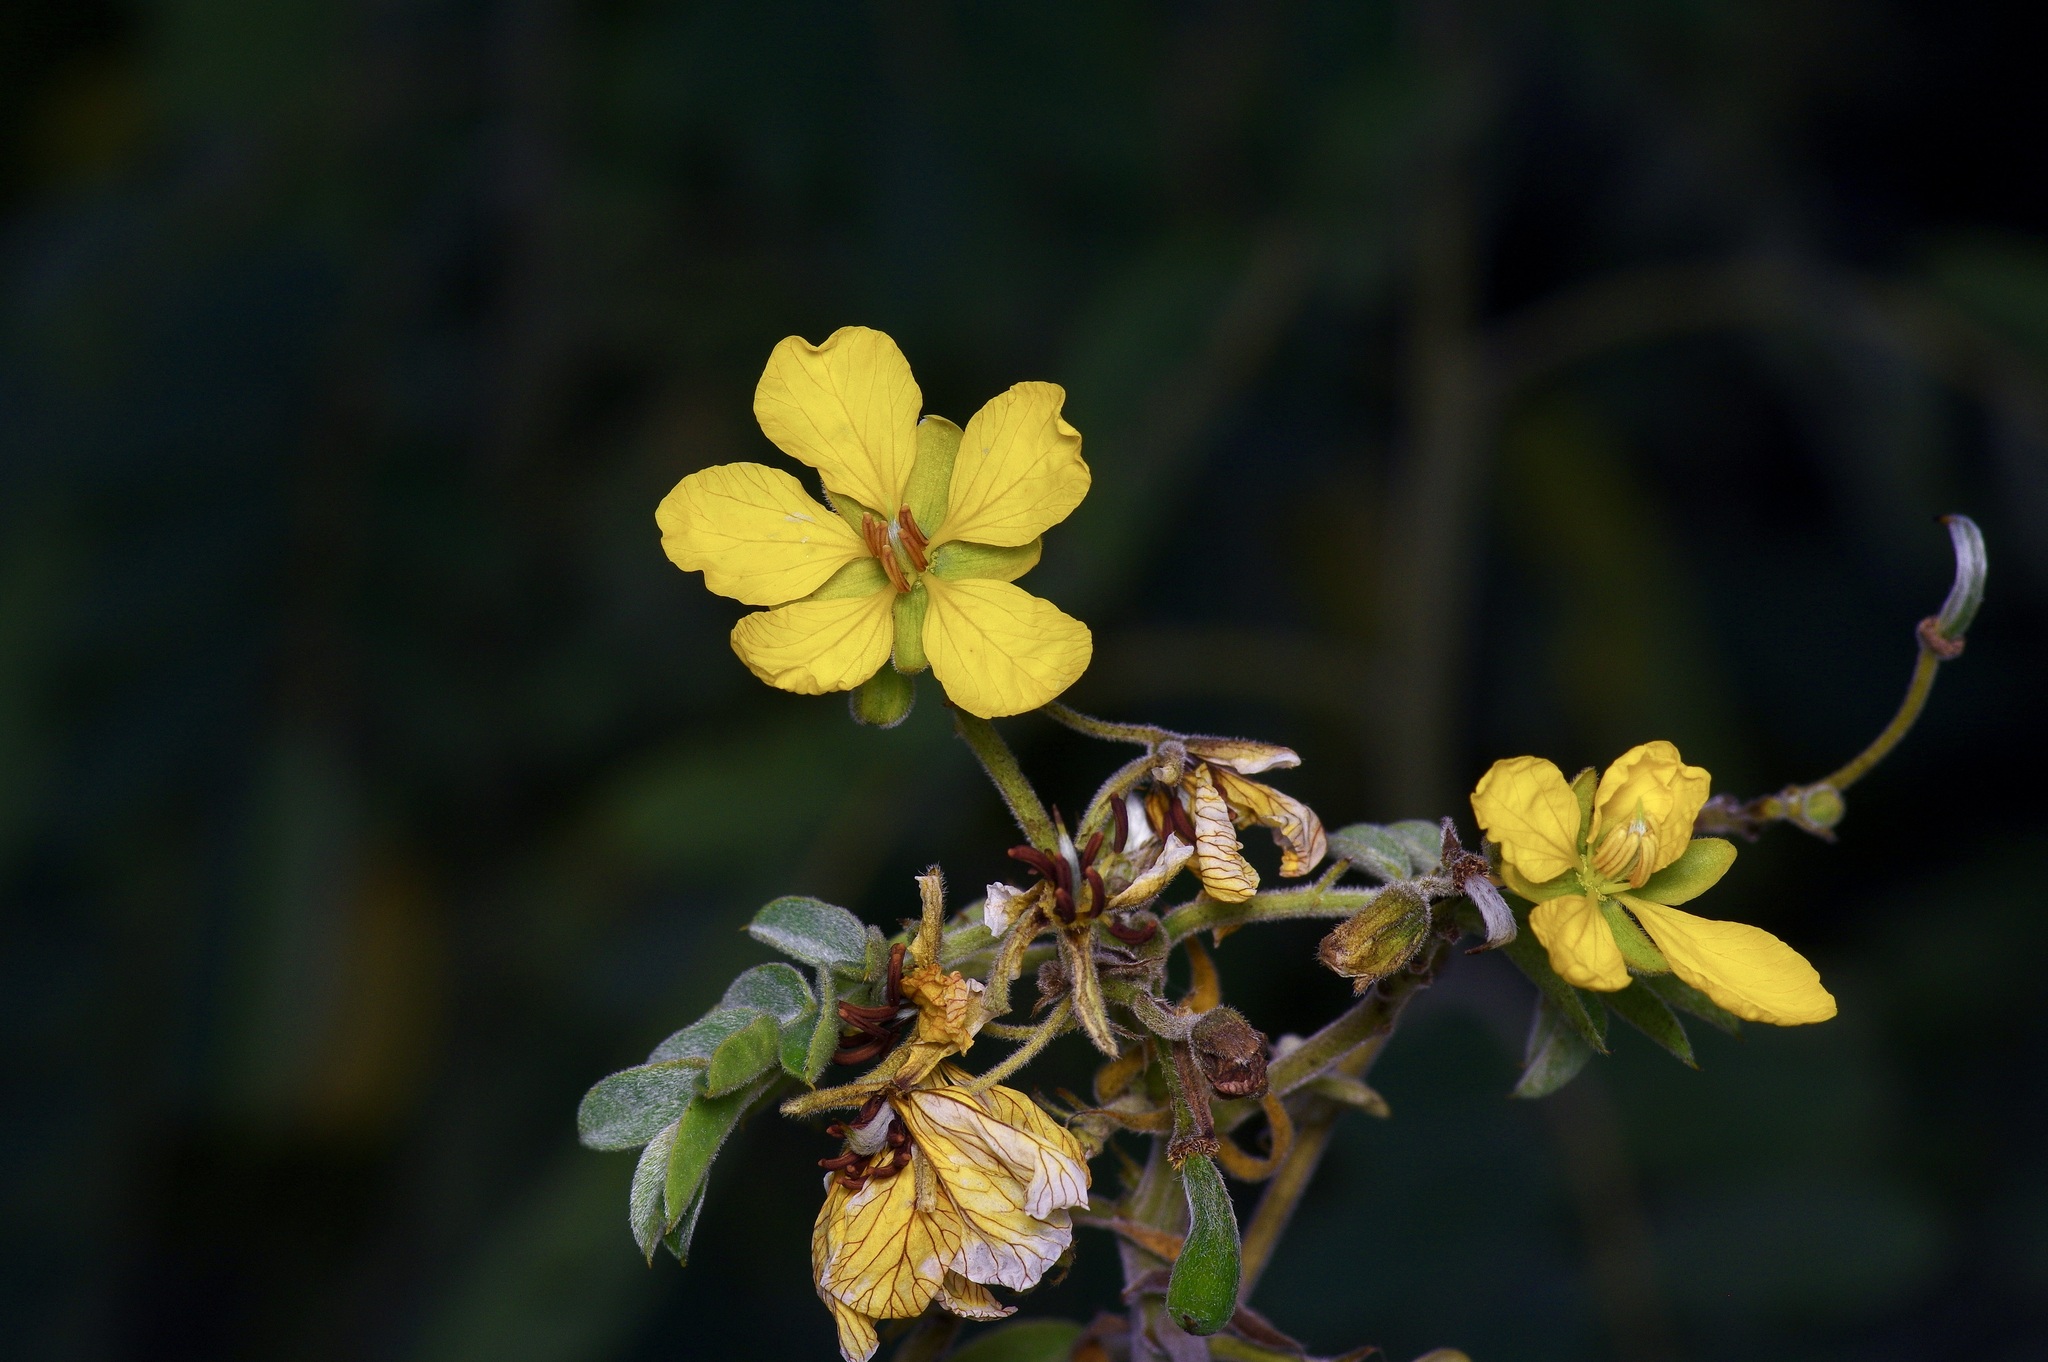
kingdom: Plantae
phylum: Tracheophyta
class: Magnoliopsida
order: Fabales
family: Fabaceae
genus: Senna
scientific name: Senna lindheimeriana
